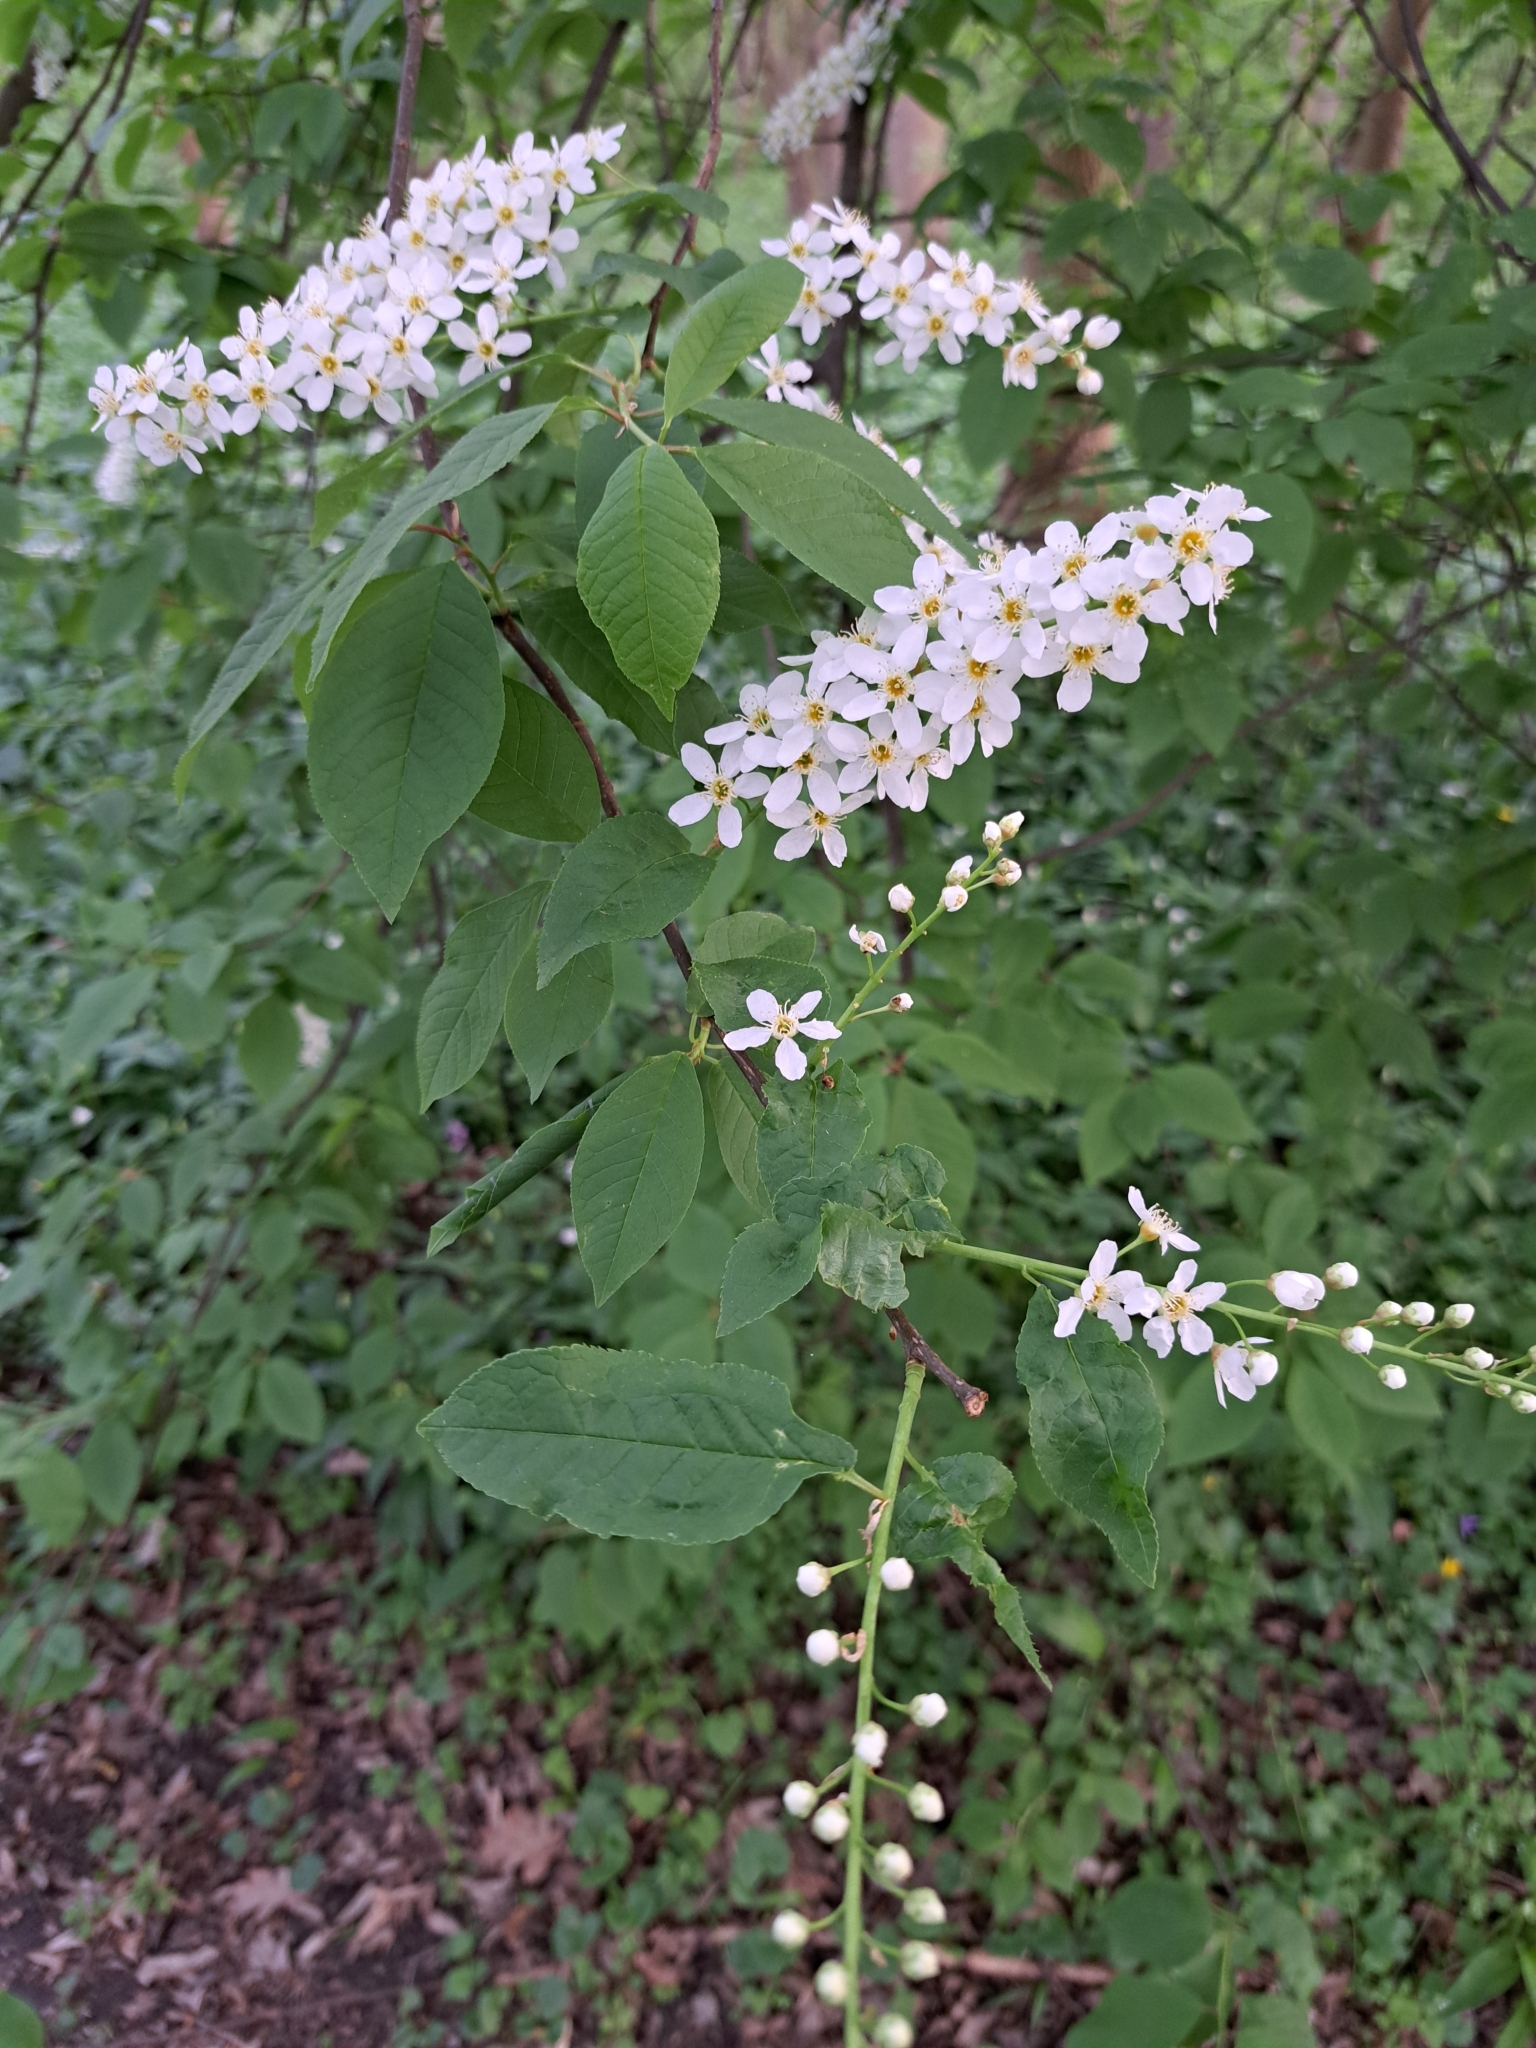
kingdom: Plantae
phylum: Tracheophyta
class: Magnoliopsida
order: Rosales
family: Rosaceae
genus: Prunus
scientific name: Prunus padus
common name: Bird cherry
